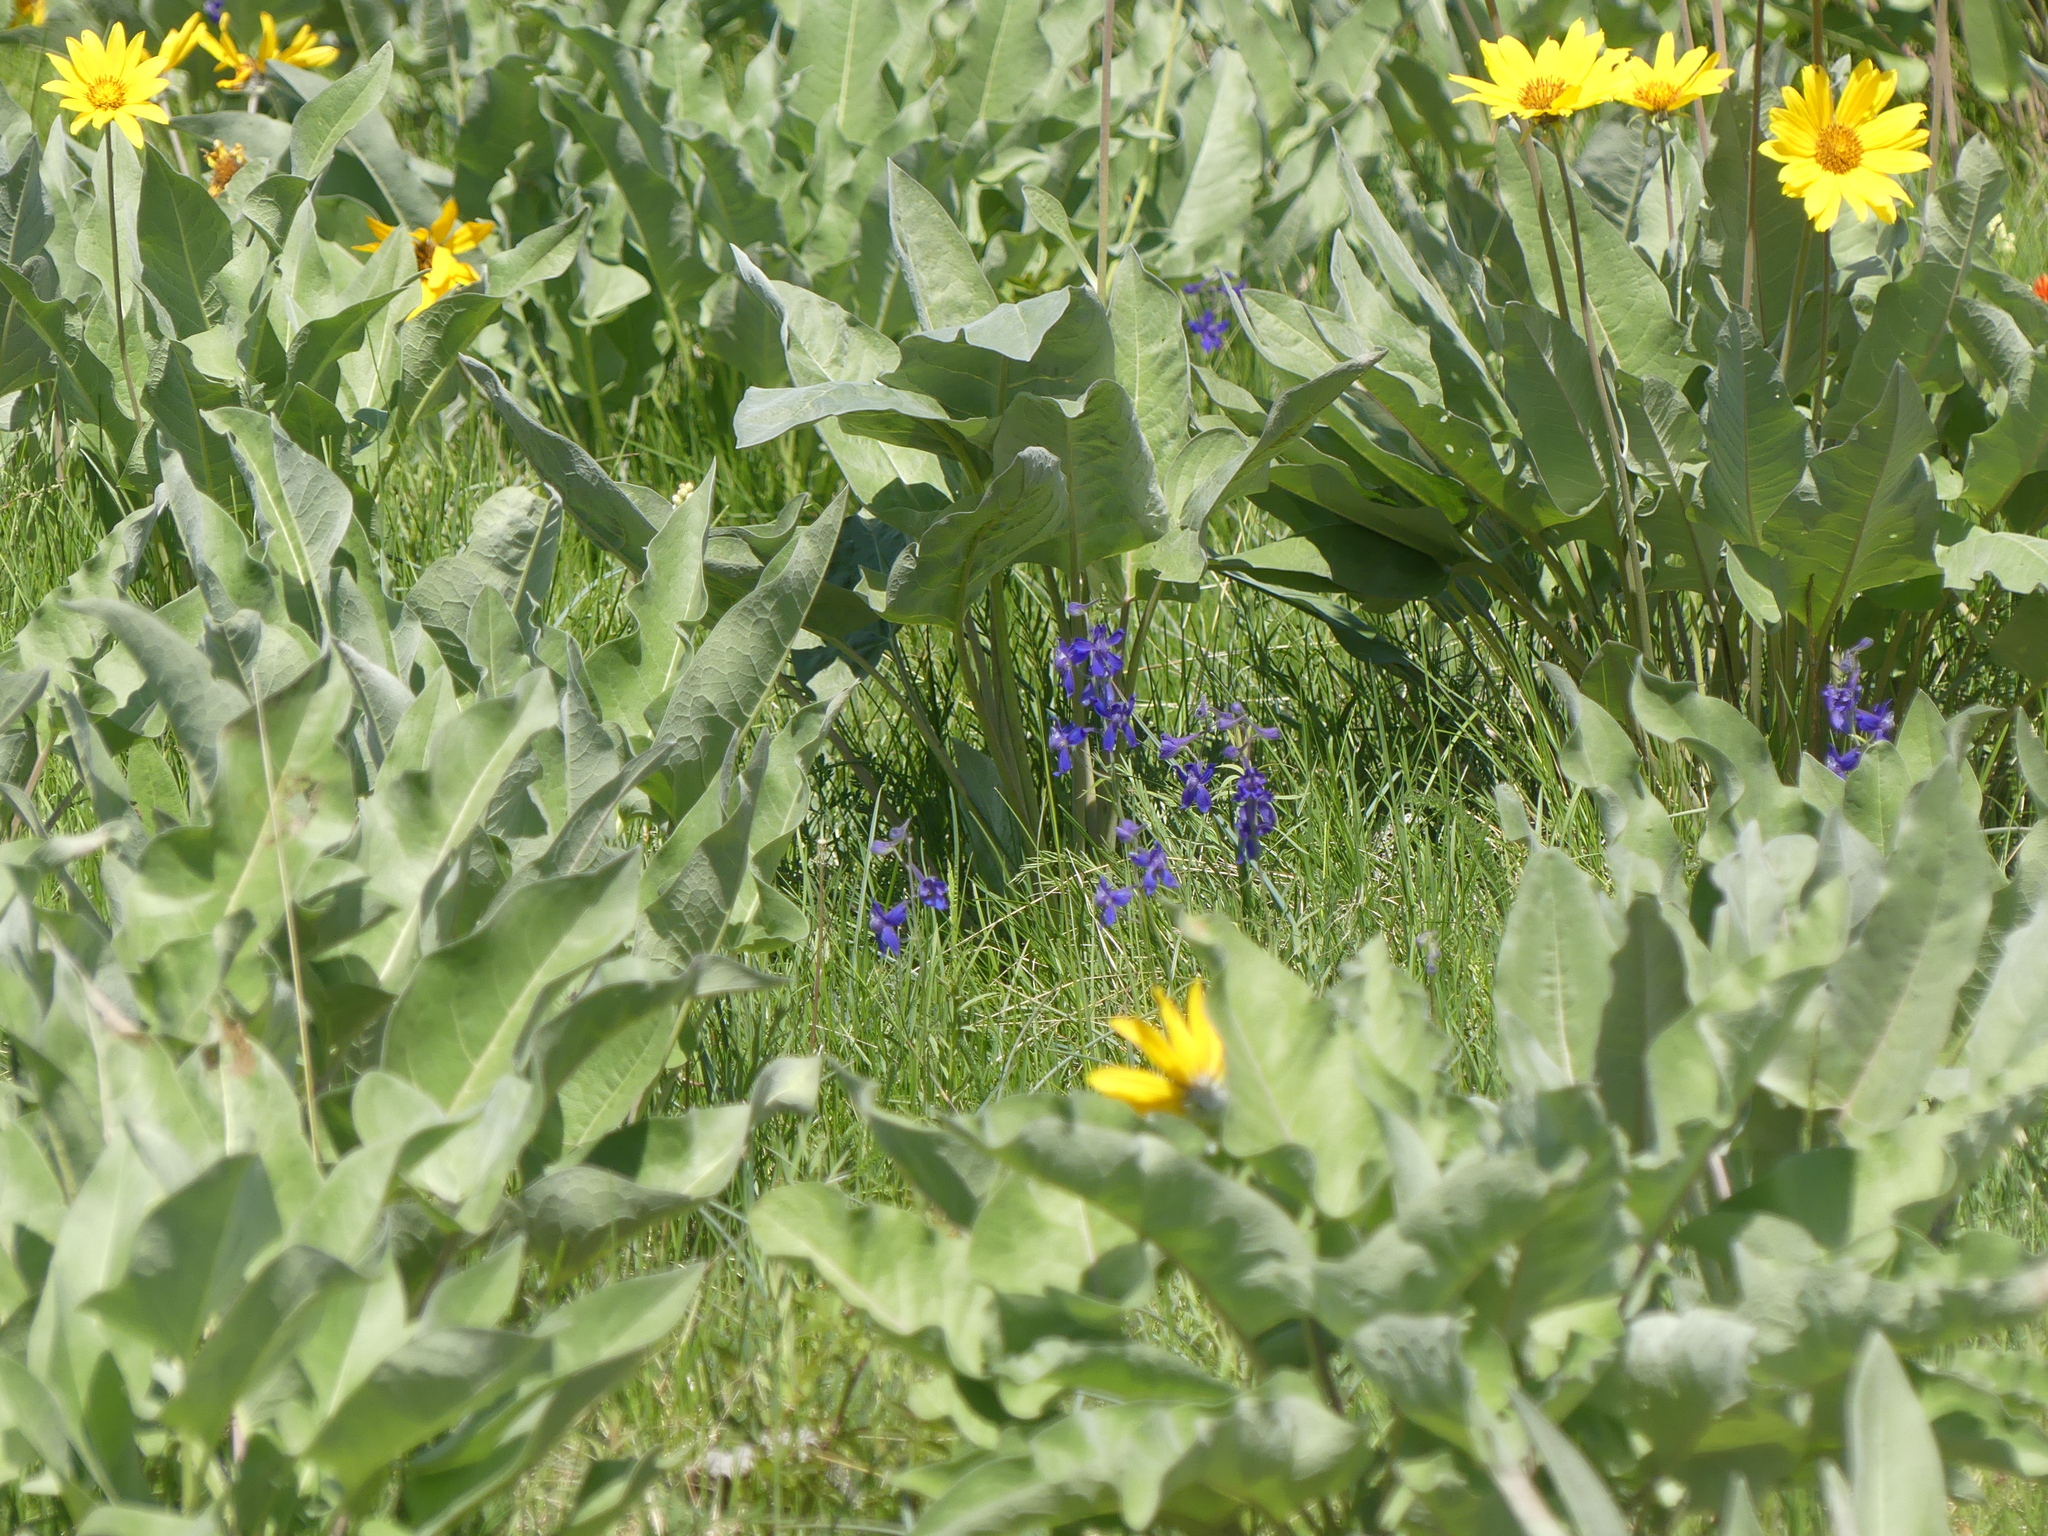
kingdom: Plantae
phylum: Tracheophyta
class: Magnoliopsida
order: Ranunculales
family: Ranunculaceae
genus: Delphinium
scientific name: Delphinium nuttallianum
